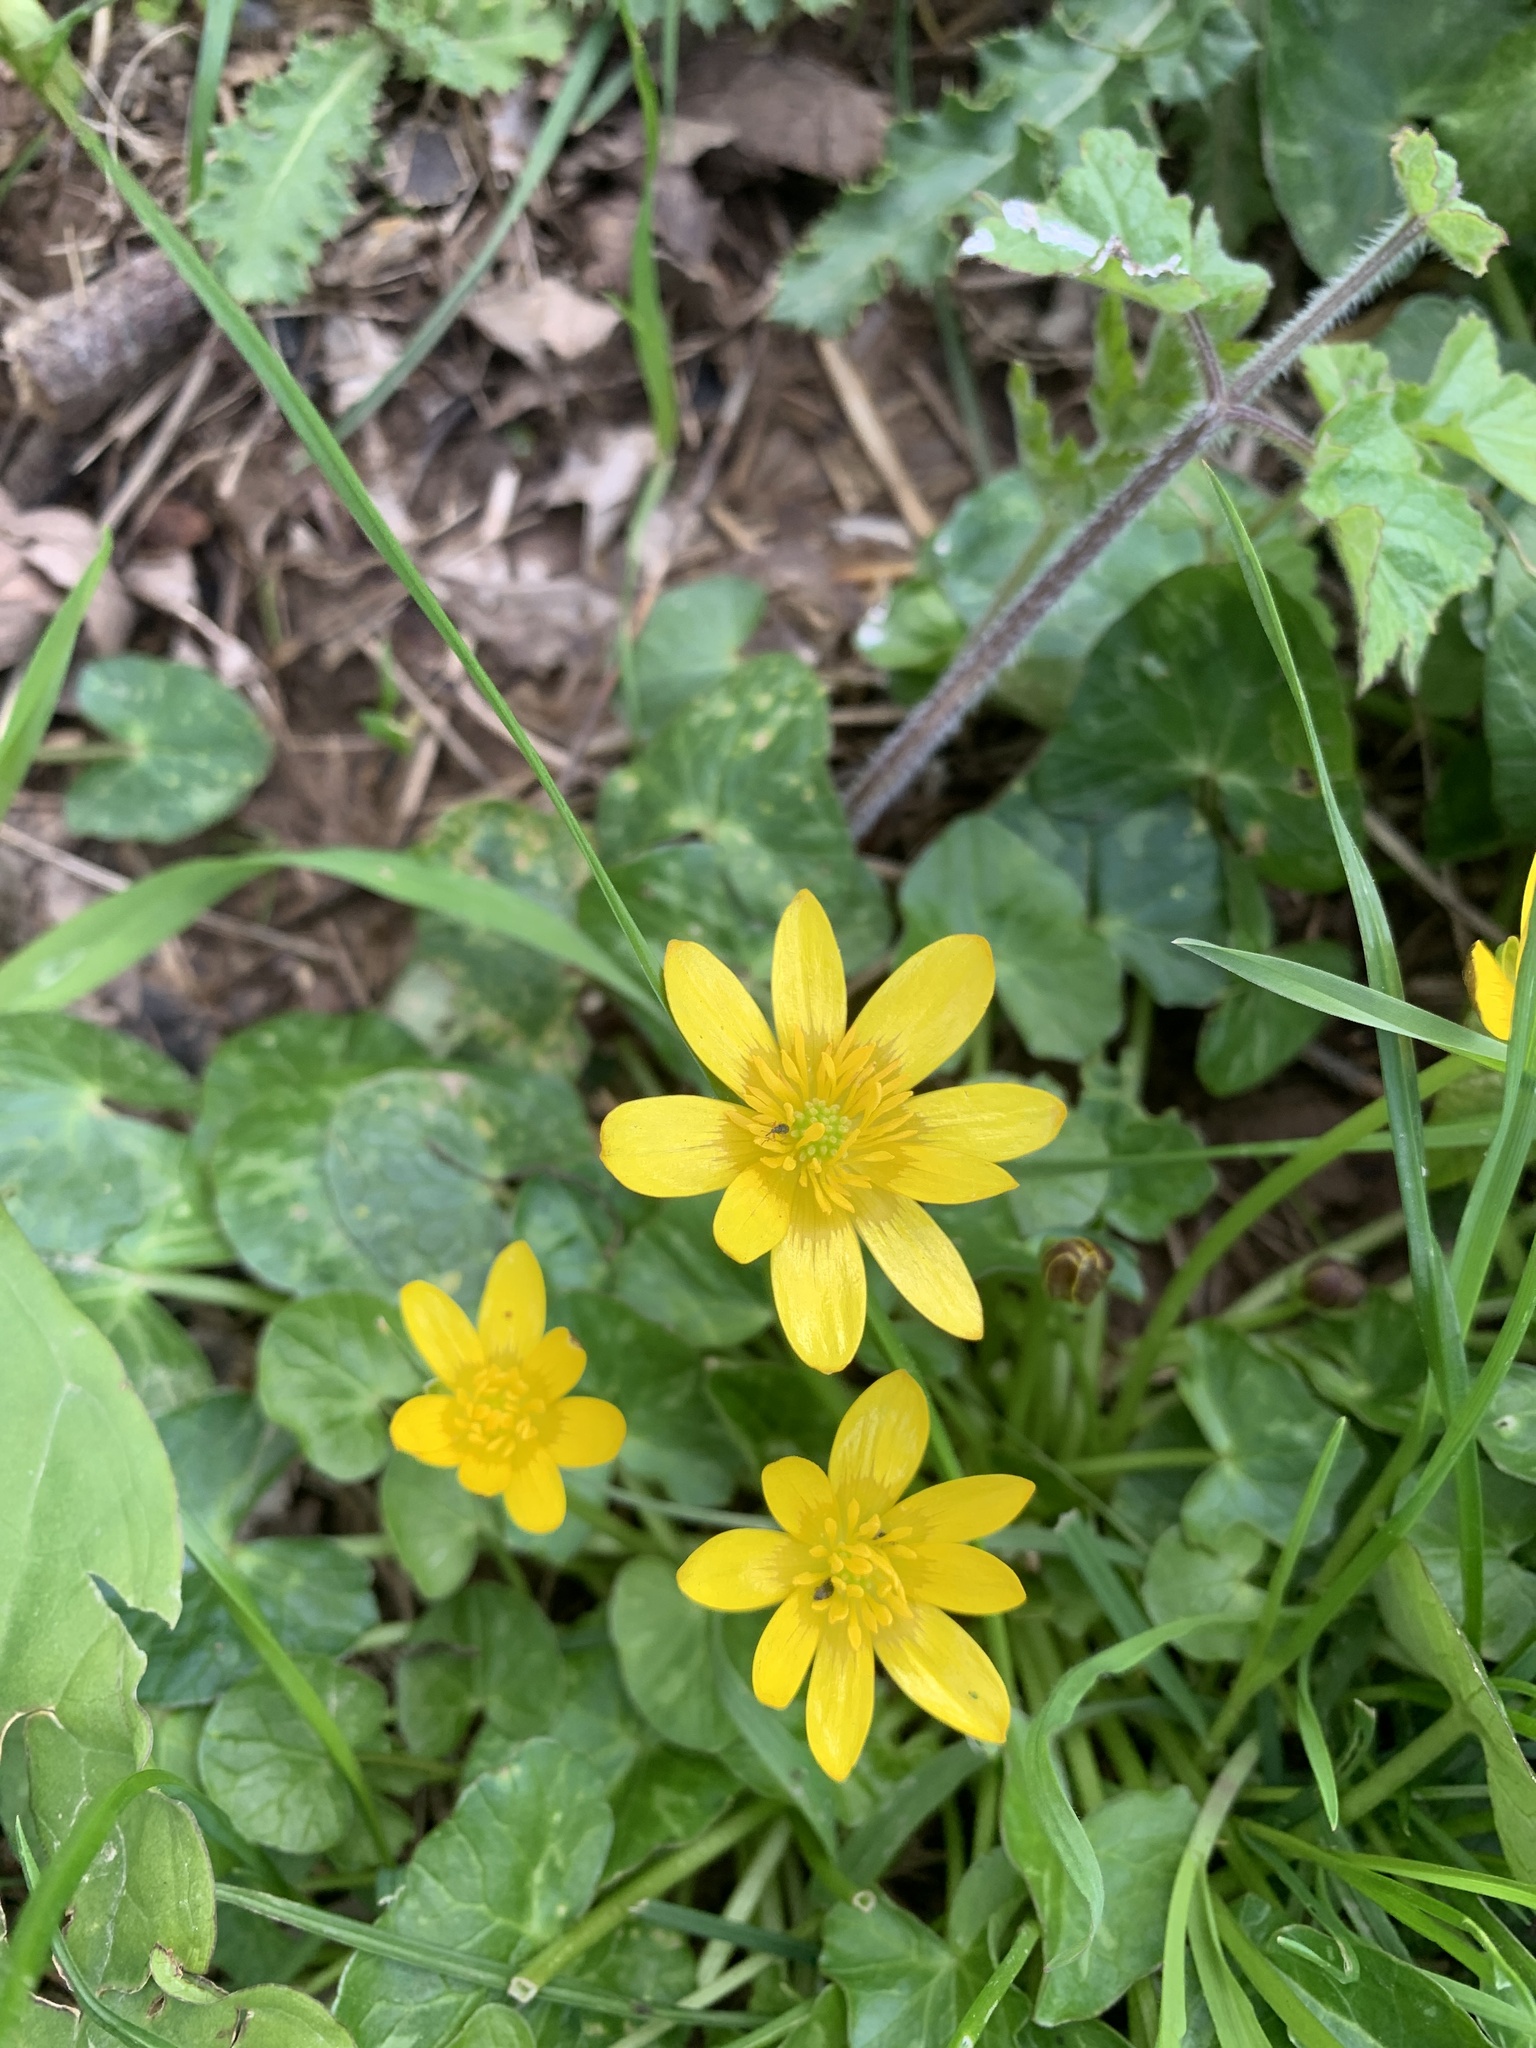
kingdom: Plantae
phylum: Tracheophyta
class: Magnoliopsida
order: Ranunculales
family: Ranunculaceae
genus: Ficaria
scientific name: Ficaria verna
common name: Lesser celandine
